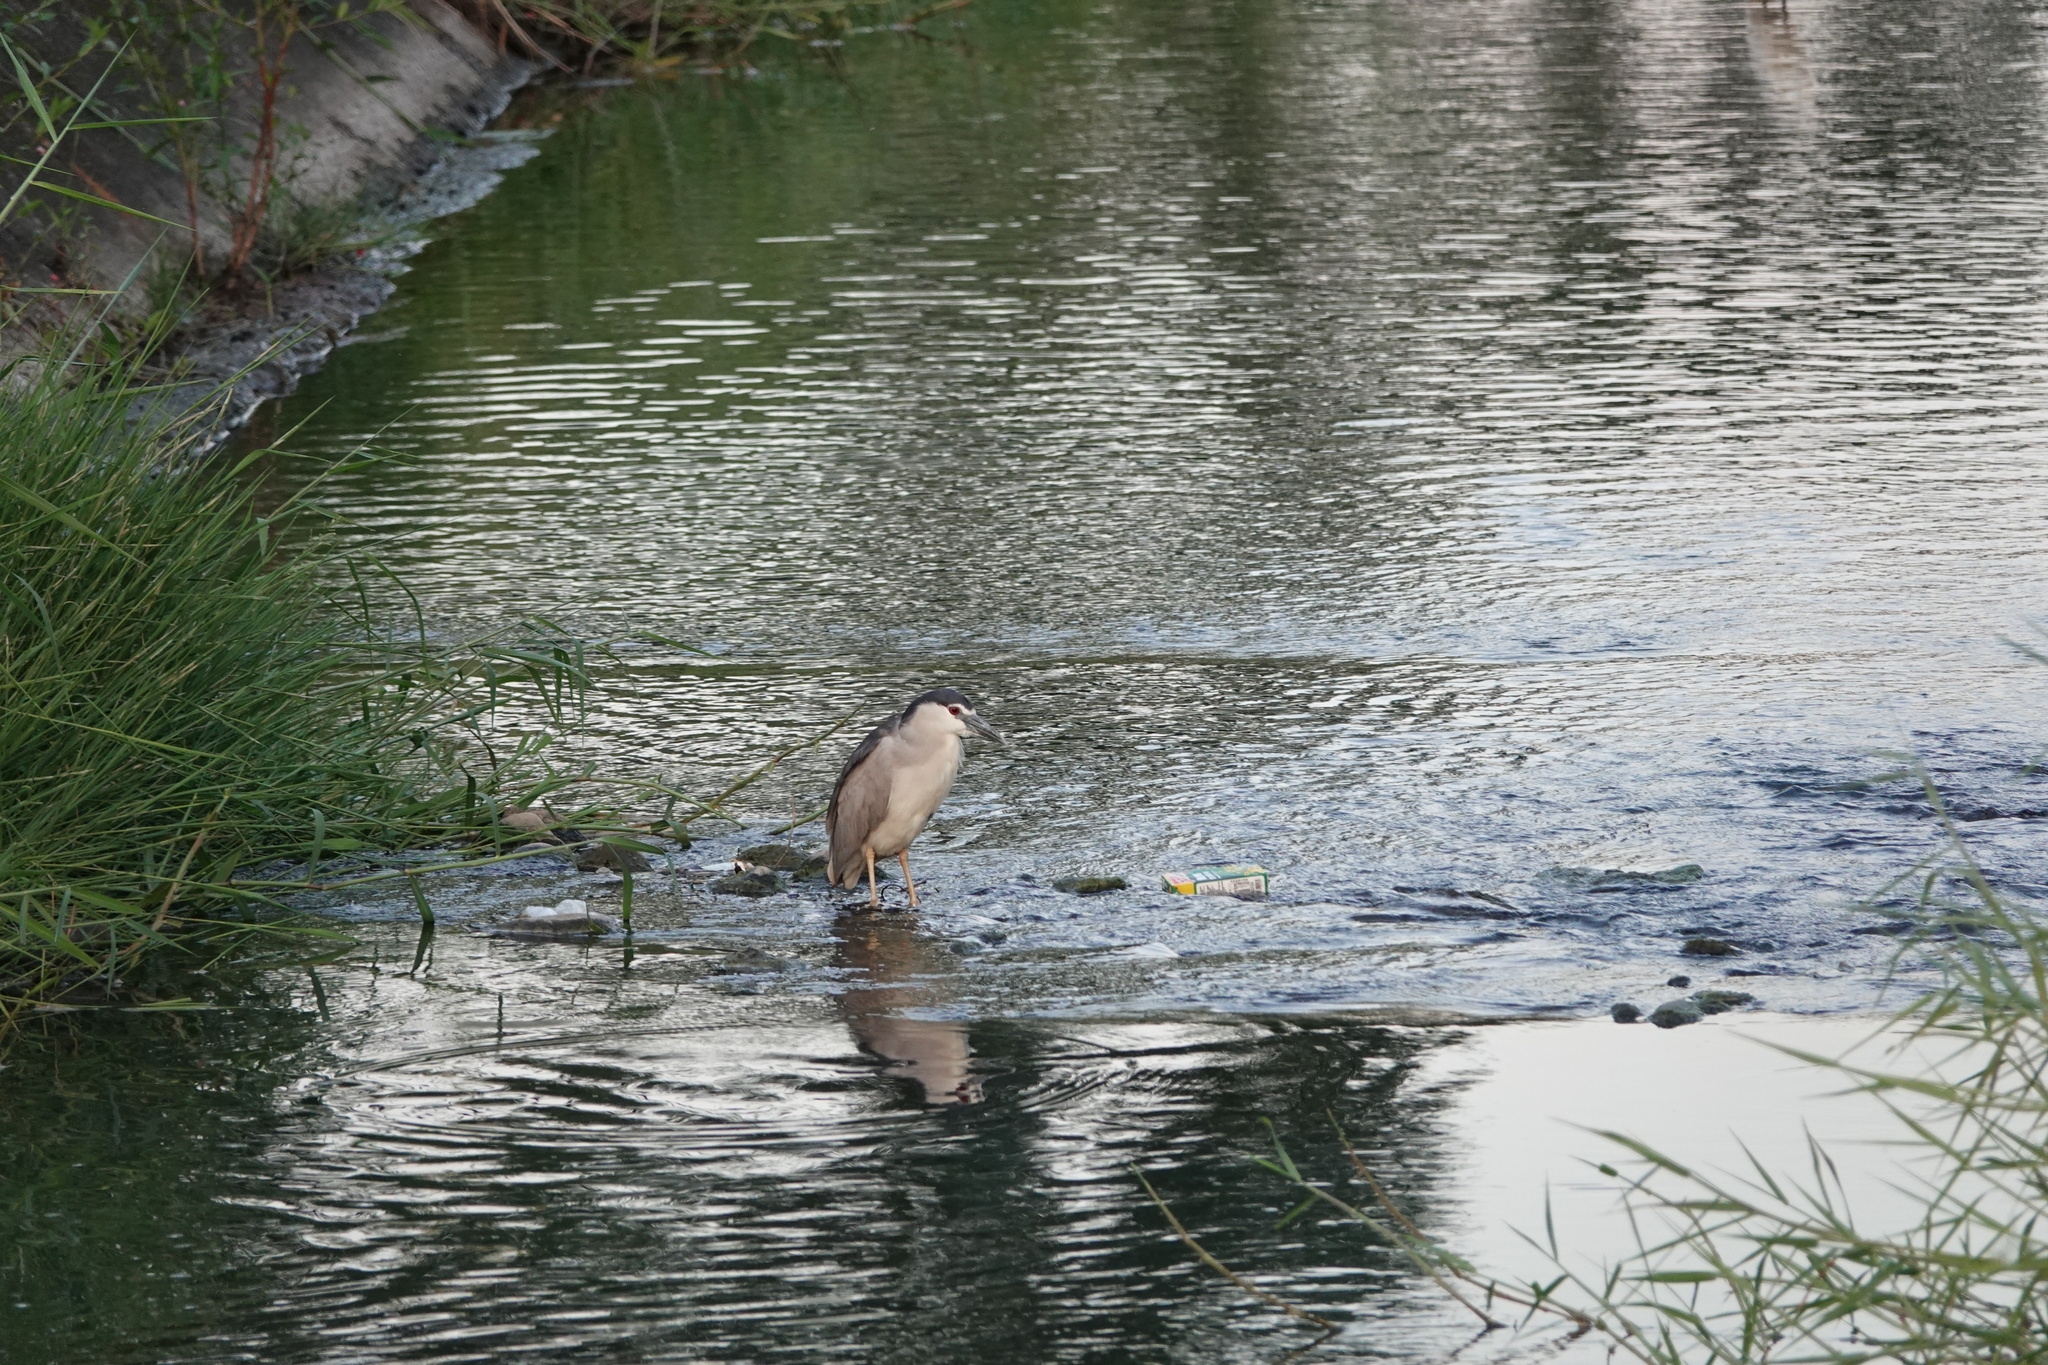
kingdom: Animalia
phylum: Chordata
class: Aves
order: Pelecaniformes
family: Ardeidae
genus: Nycticorax
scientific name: Nycticorax nycticorax
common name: Black-crowned night heron
